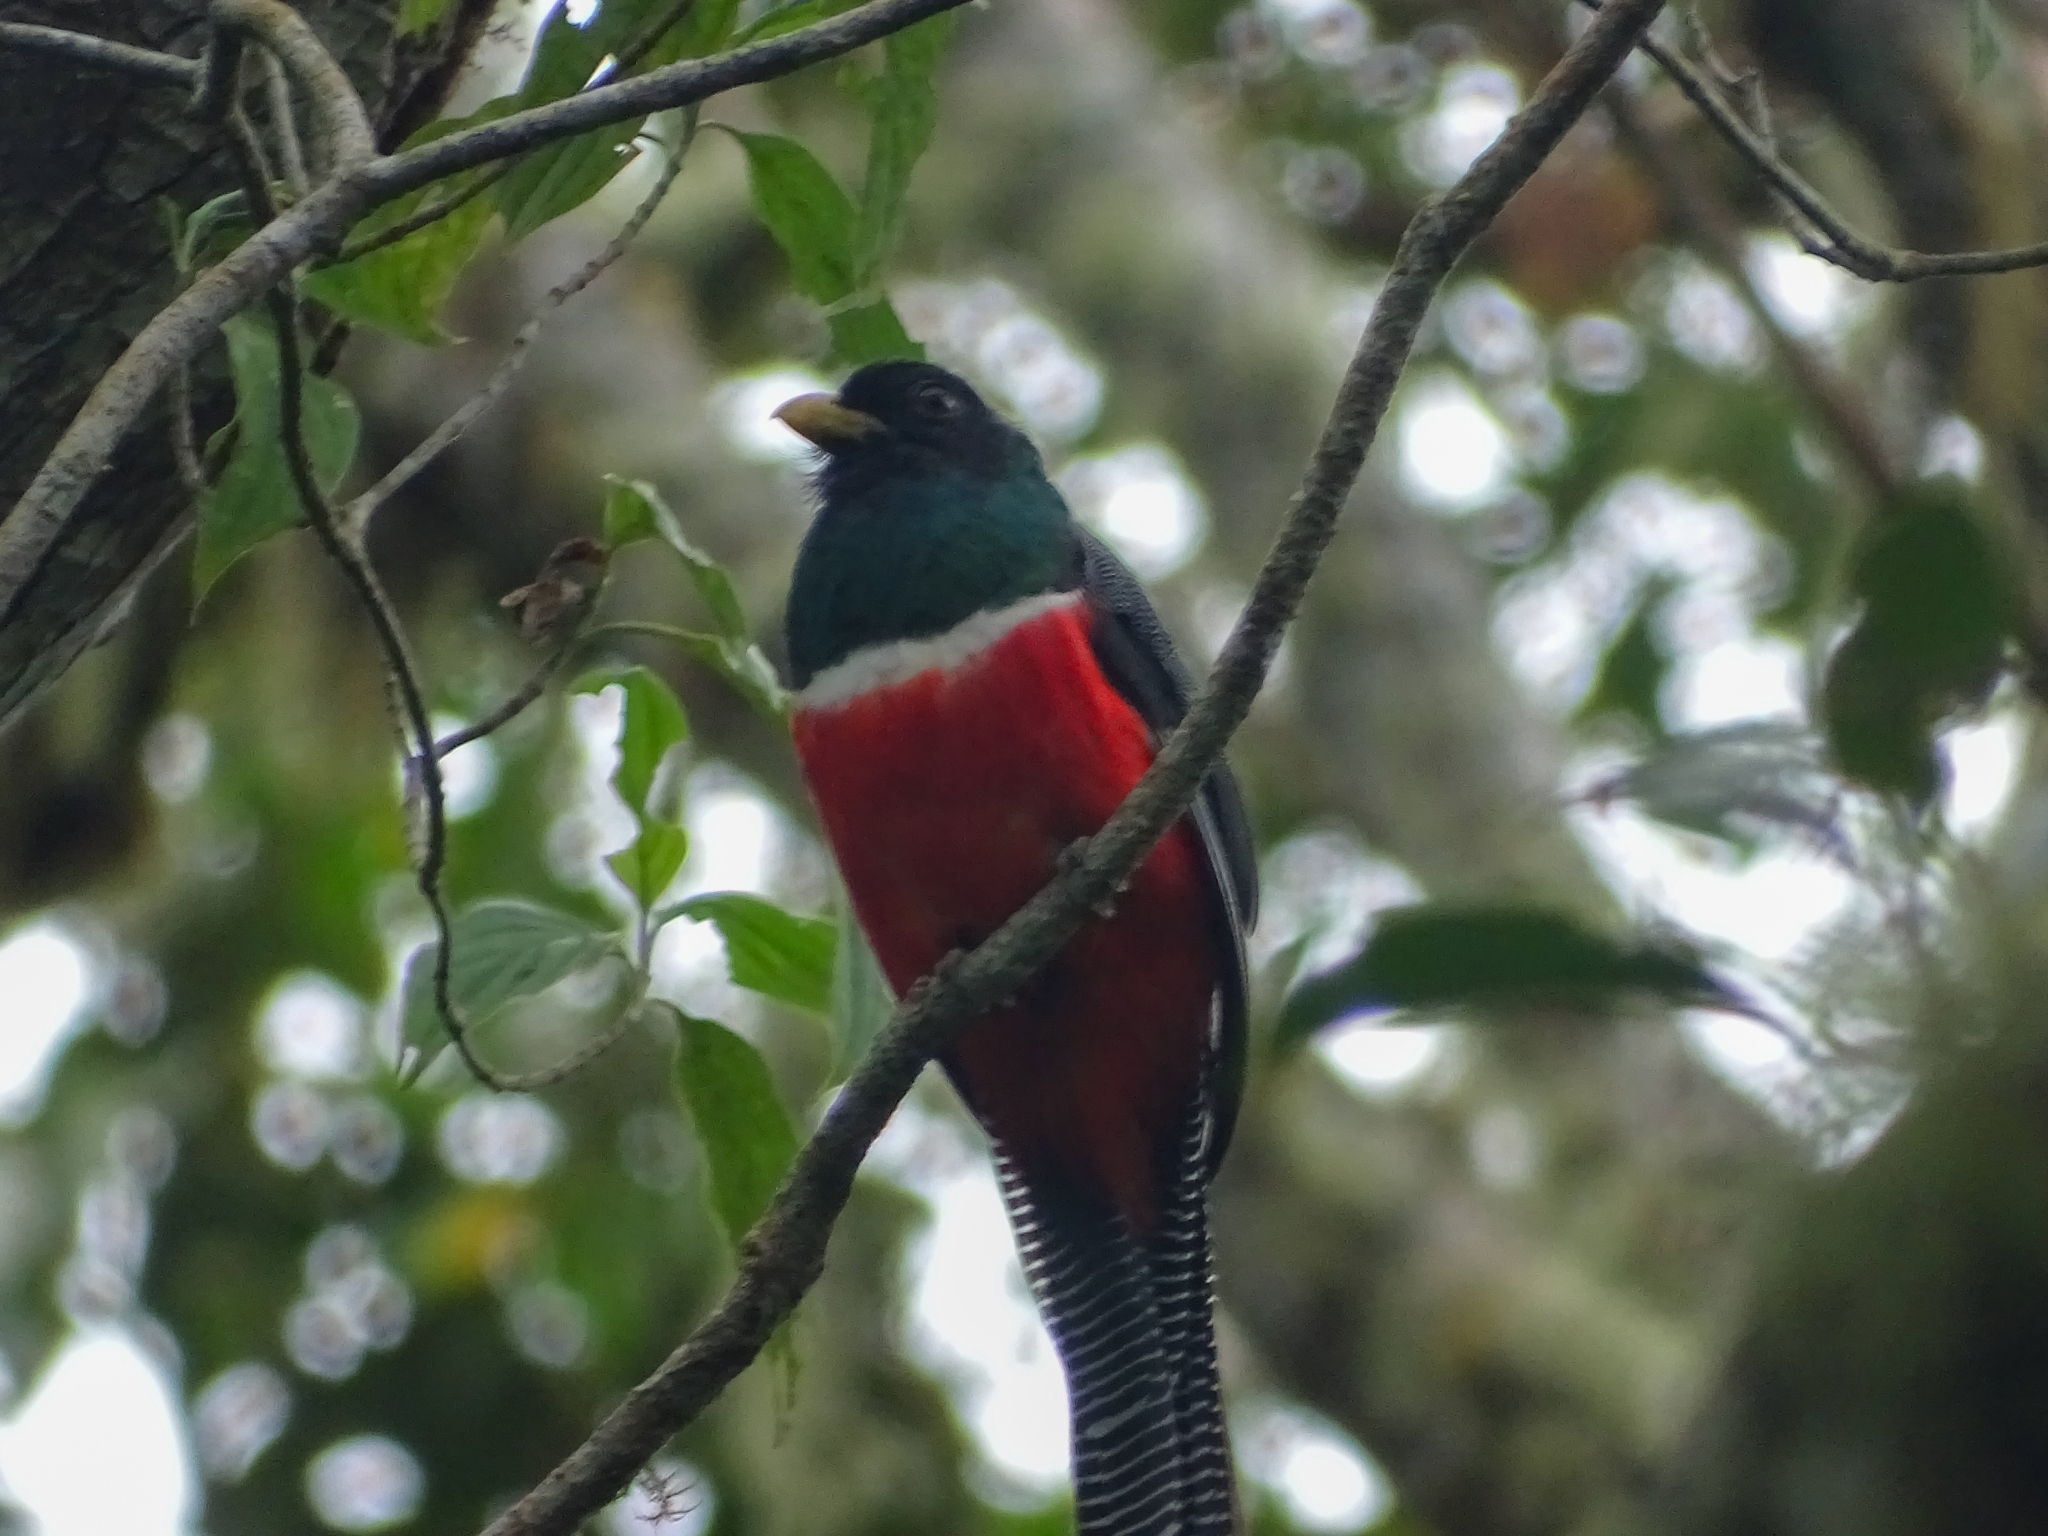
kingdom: Animalia
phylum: Chordata
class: Aves
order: Trogoniformes
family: Trogonidae
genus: Trogon
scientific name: Trogon collaris
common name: Collared trogon
